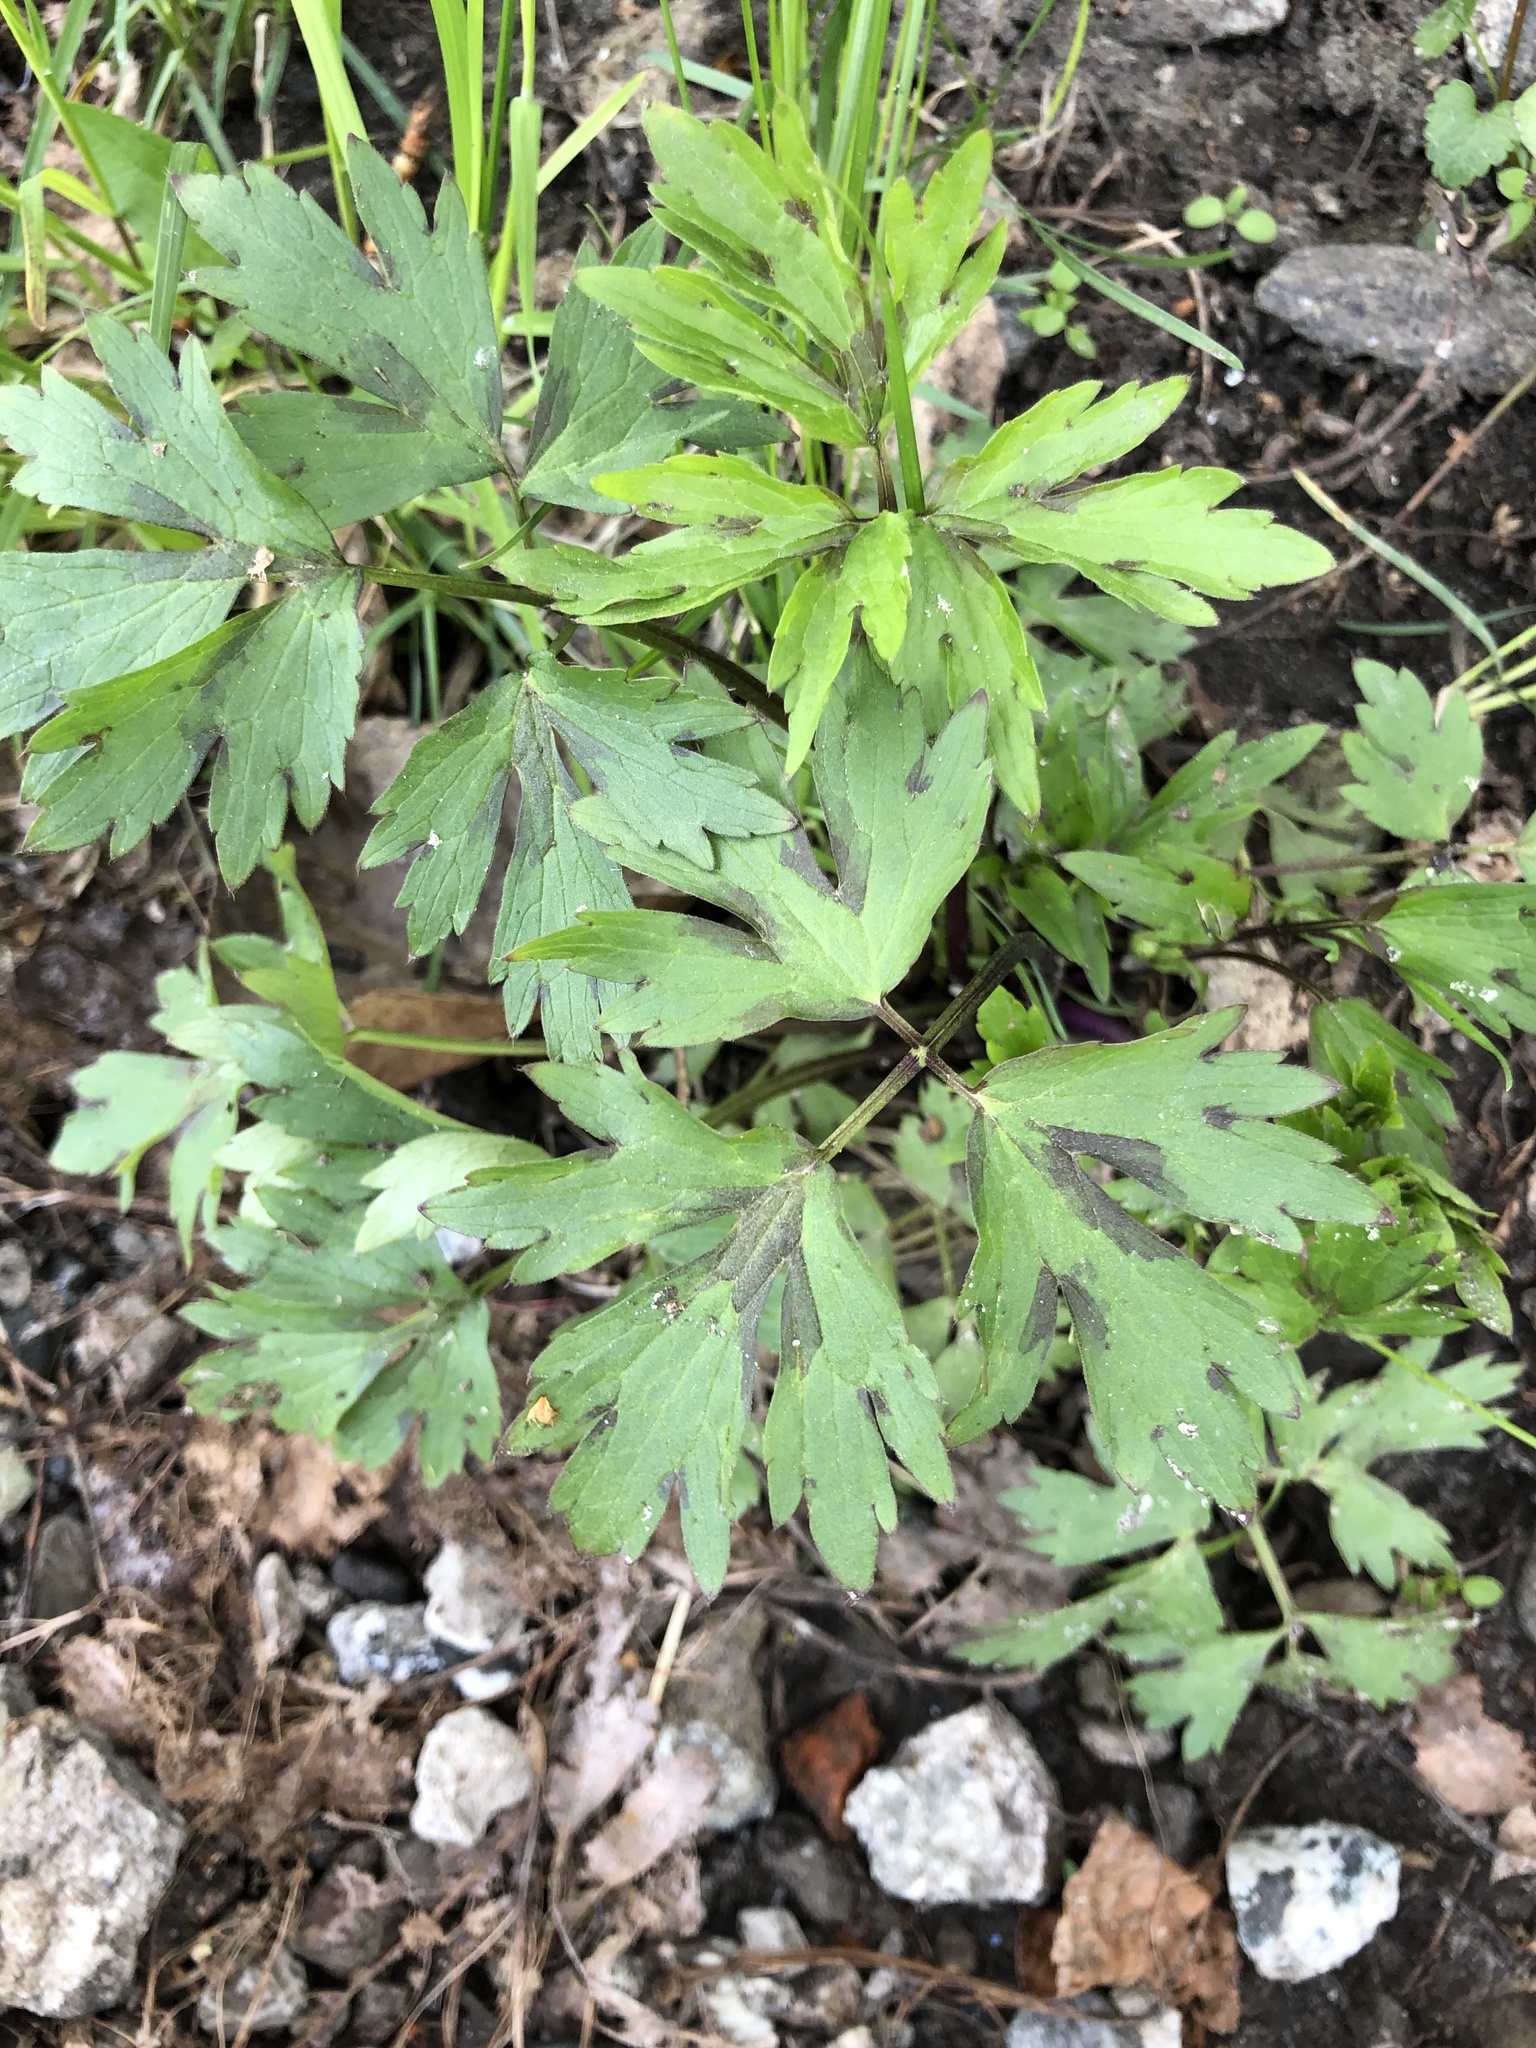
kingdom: Plantae
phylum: Tracheophyta
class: Magnoliopsida
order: Ranunculales
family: Ranunculaceae
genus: Ranunculus
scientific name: Ranunculus repens
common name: Creeping buttercup
